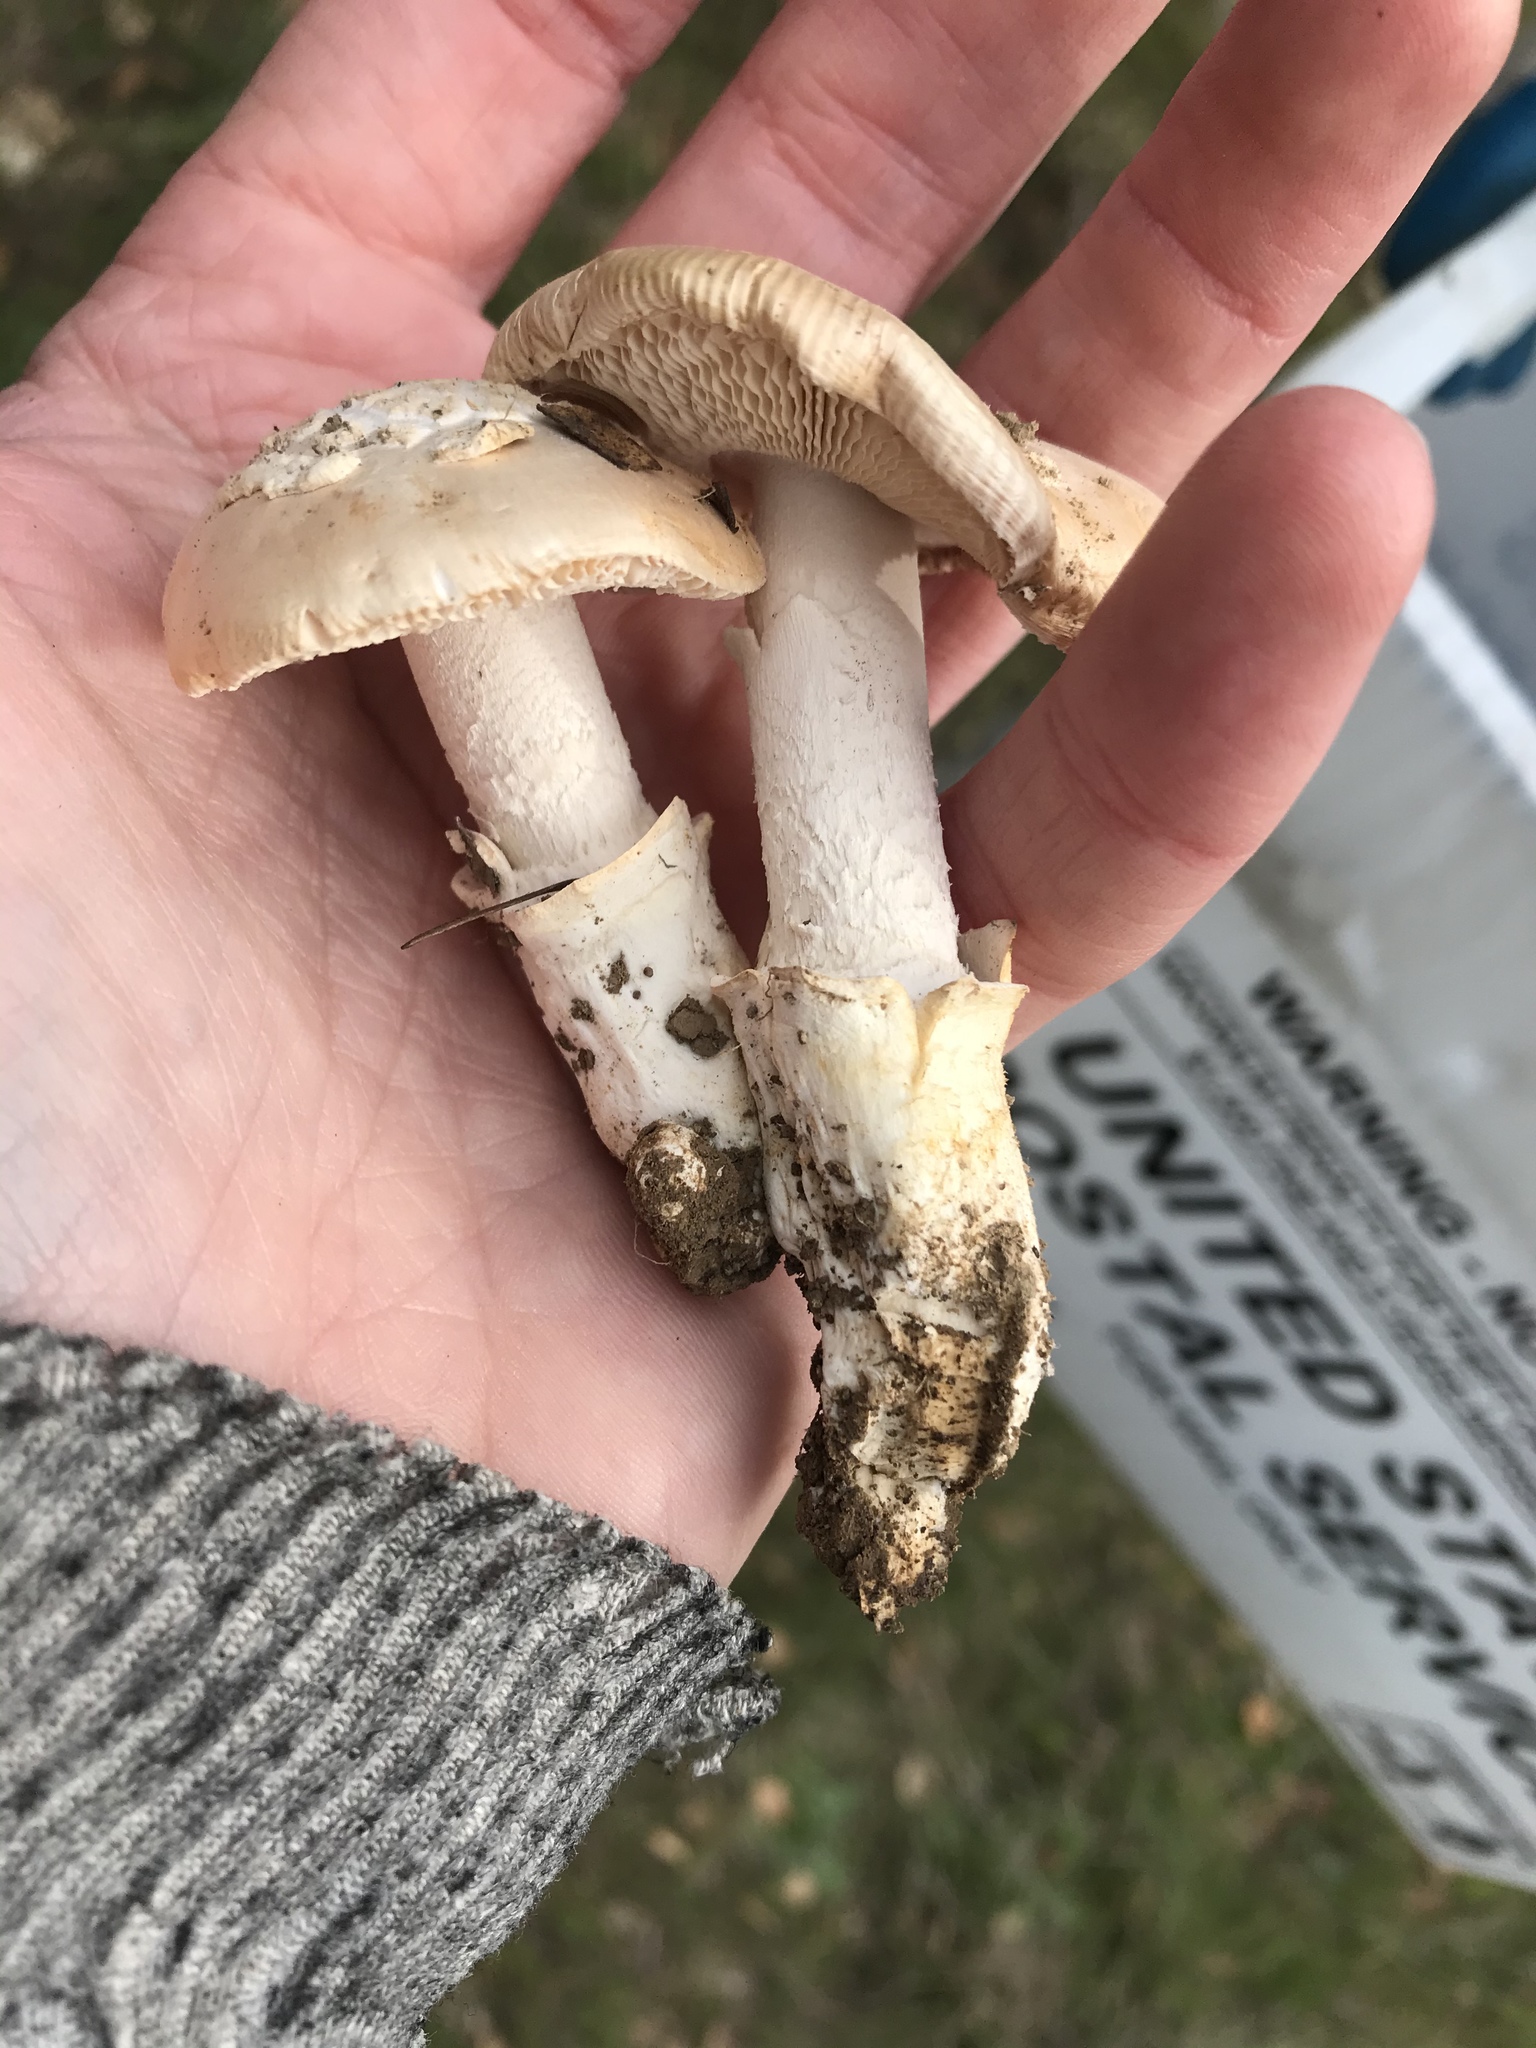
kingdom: Fungi
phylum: Basidiomycota
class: Agaricomycetes
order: Agaricales
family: Amanitaceae
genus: Amanita
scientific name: Amanita velosa
